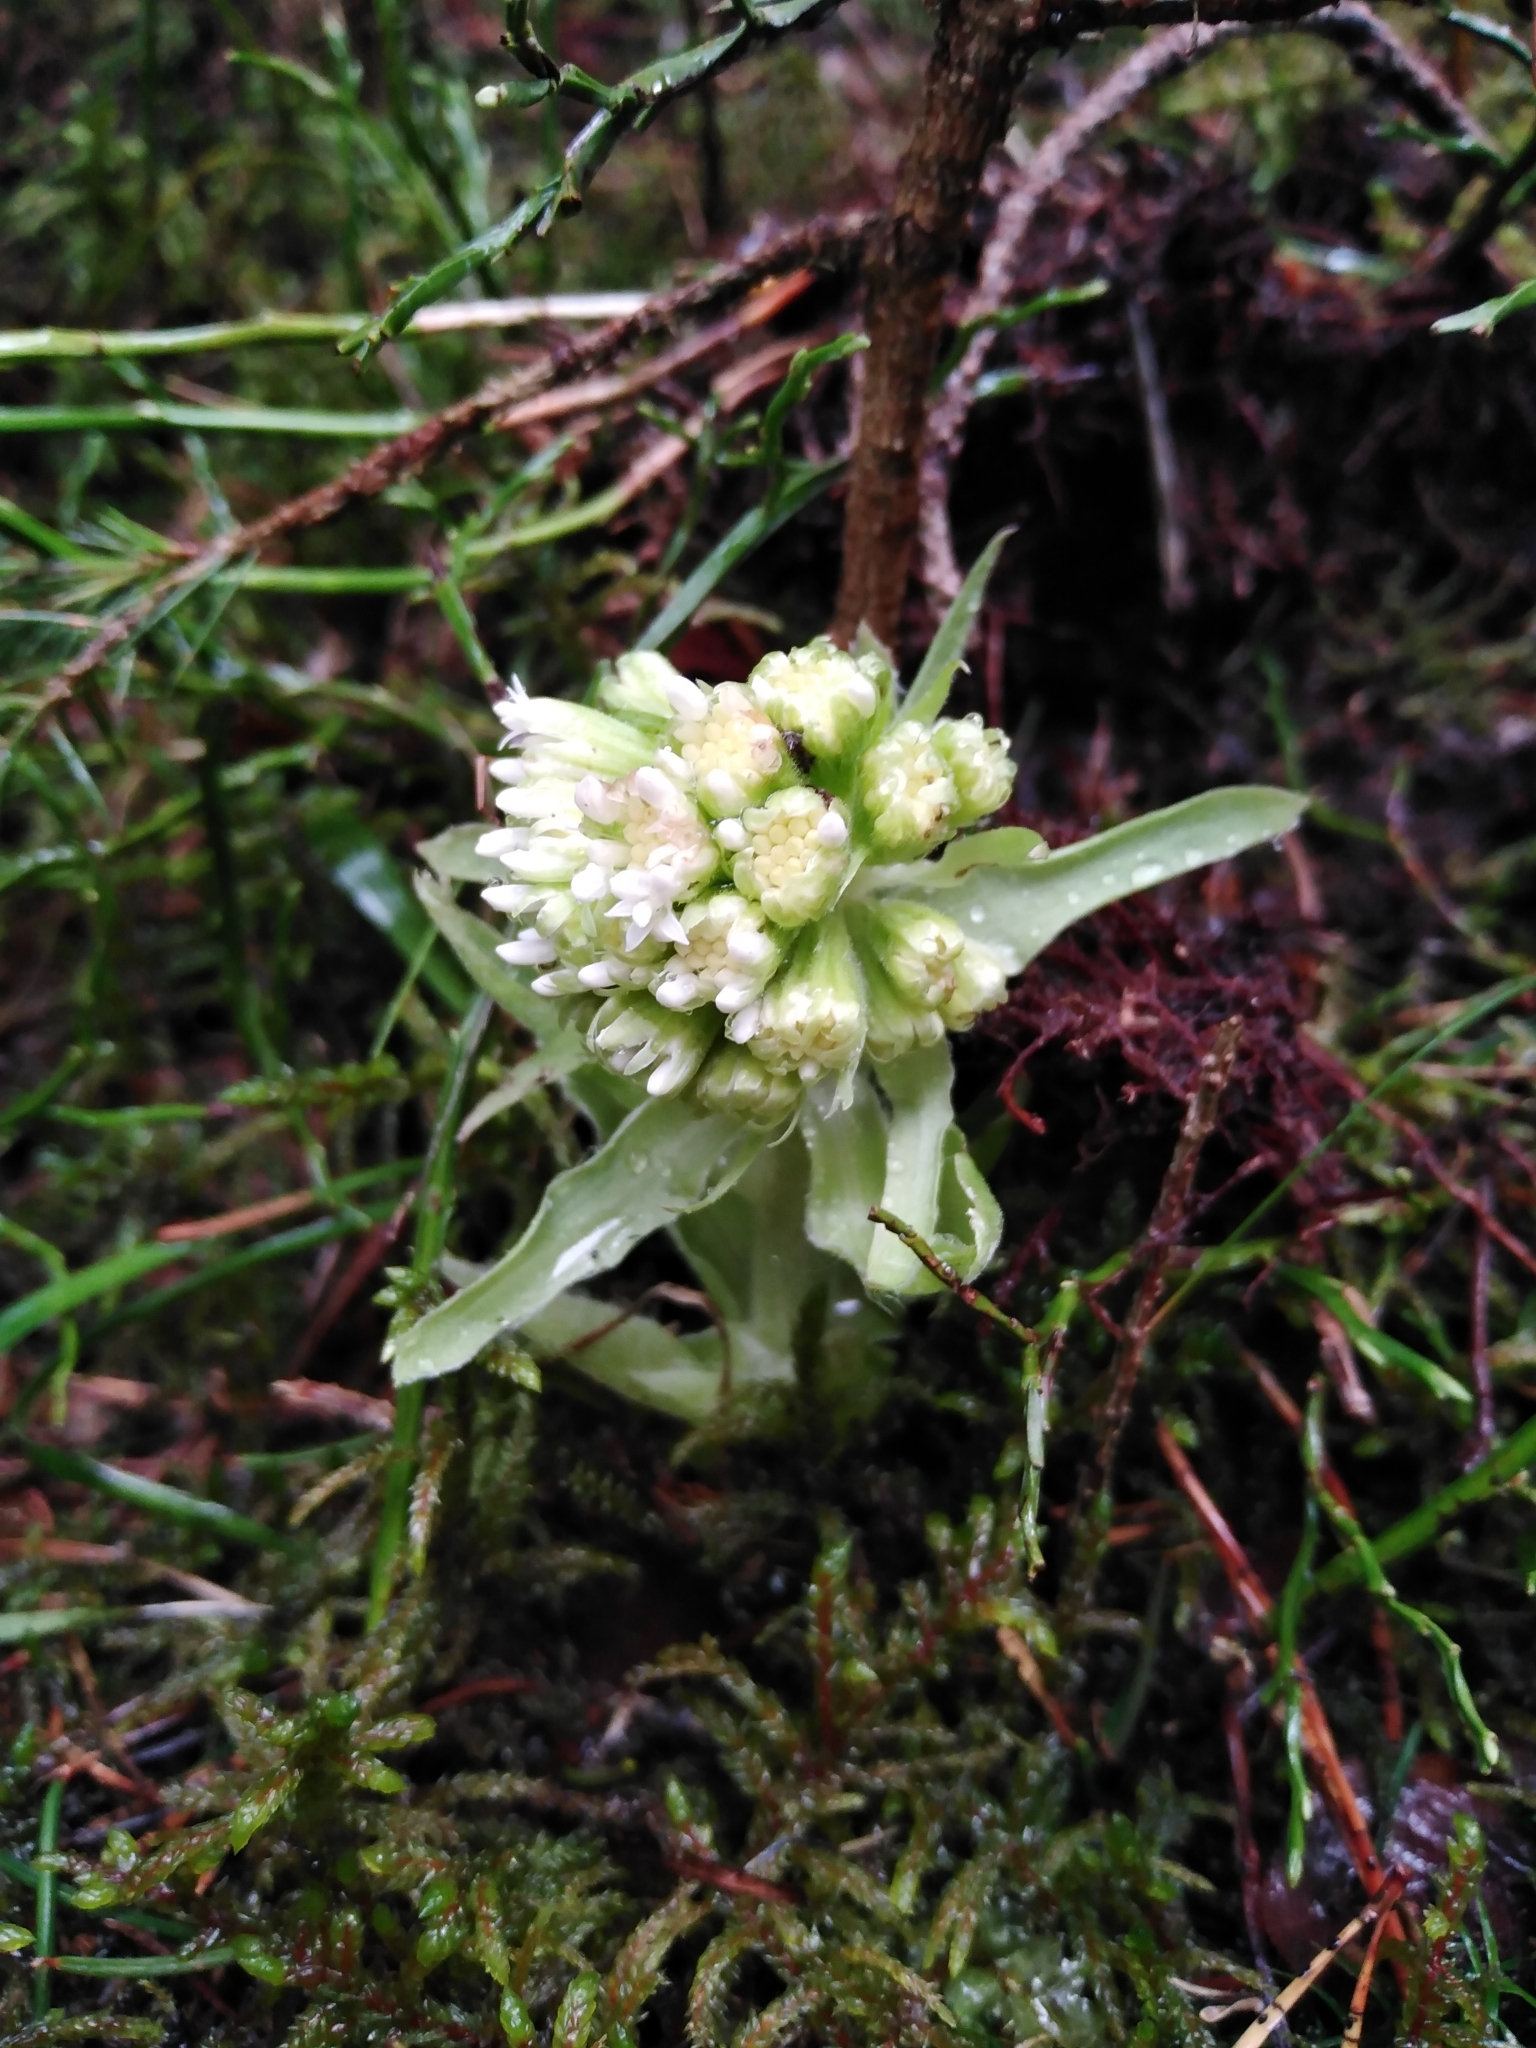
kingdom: Plantae
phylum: Tracheophyta
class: Magnoliopsida
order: Asterales
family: Asteraceae
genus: Petasites
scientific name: Petasites albus
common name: White butterbur
